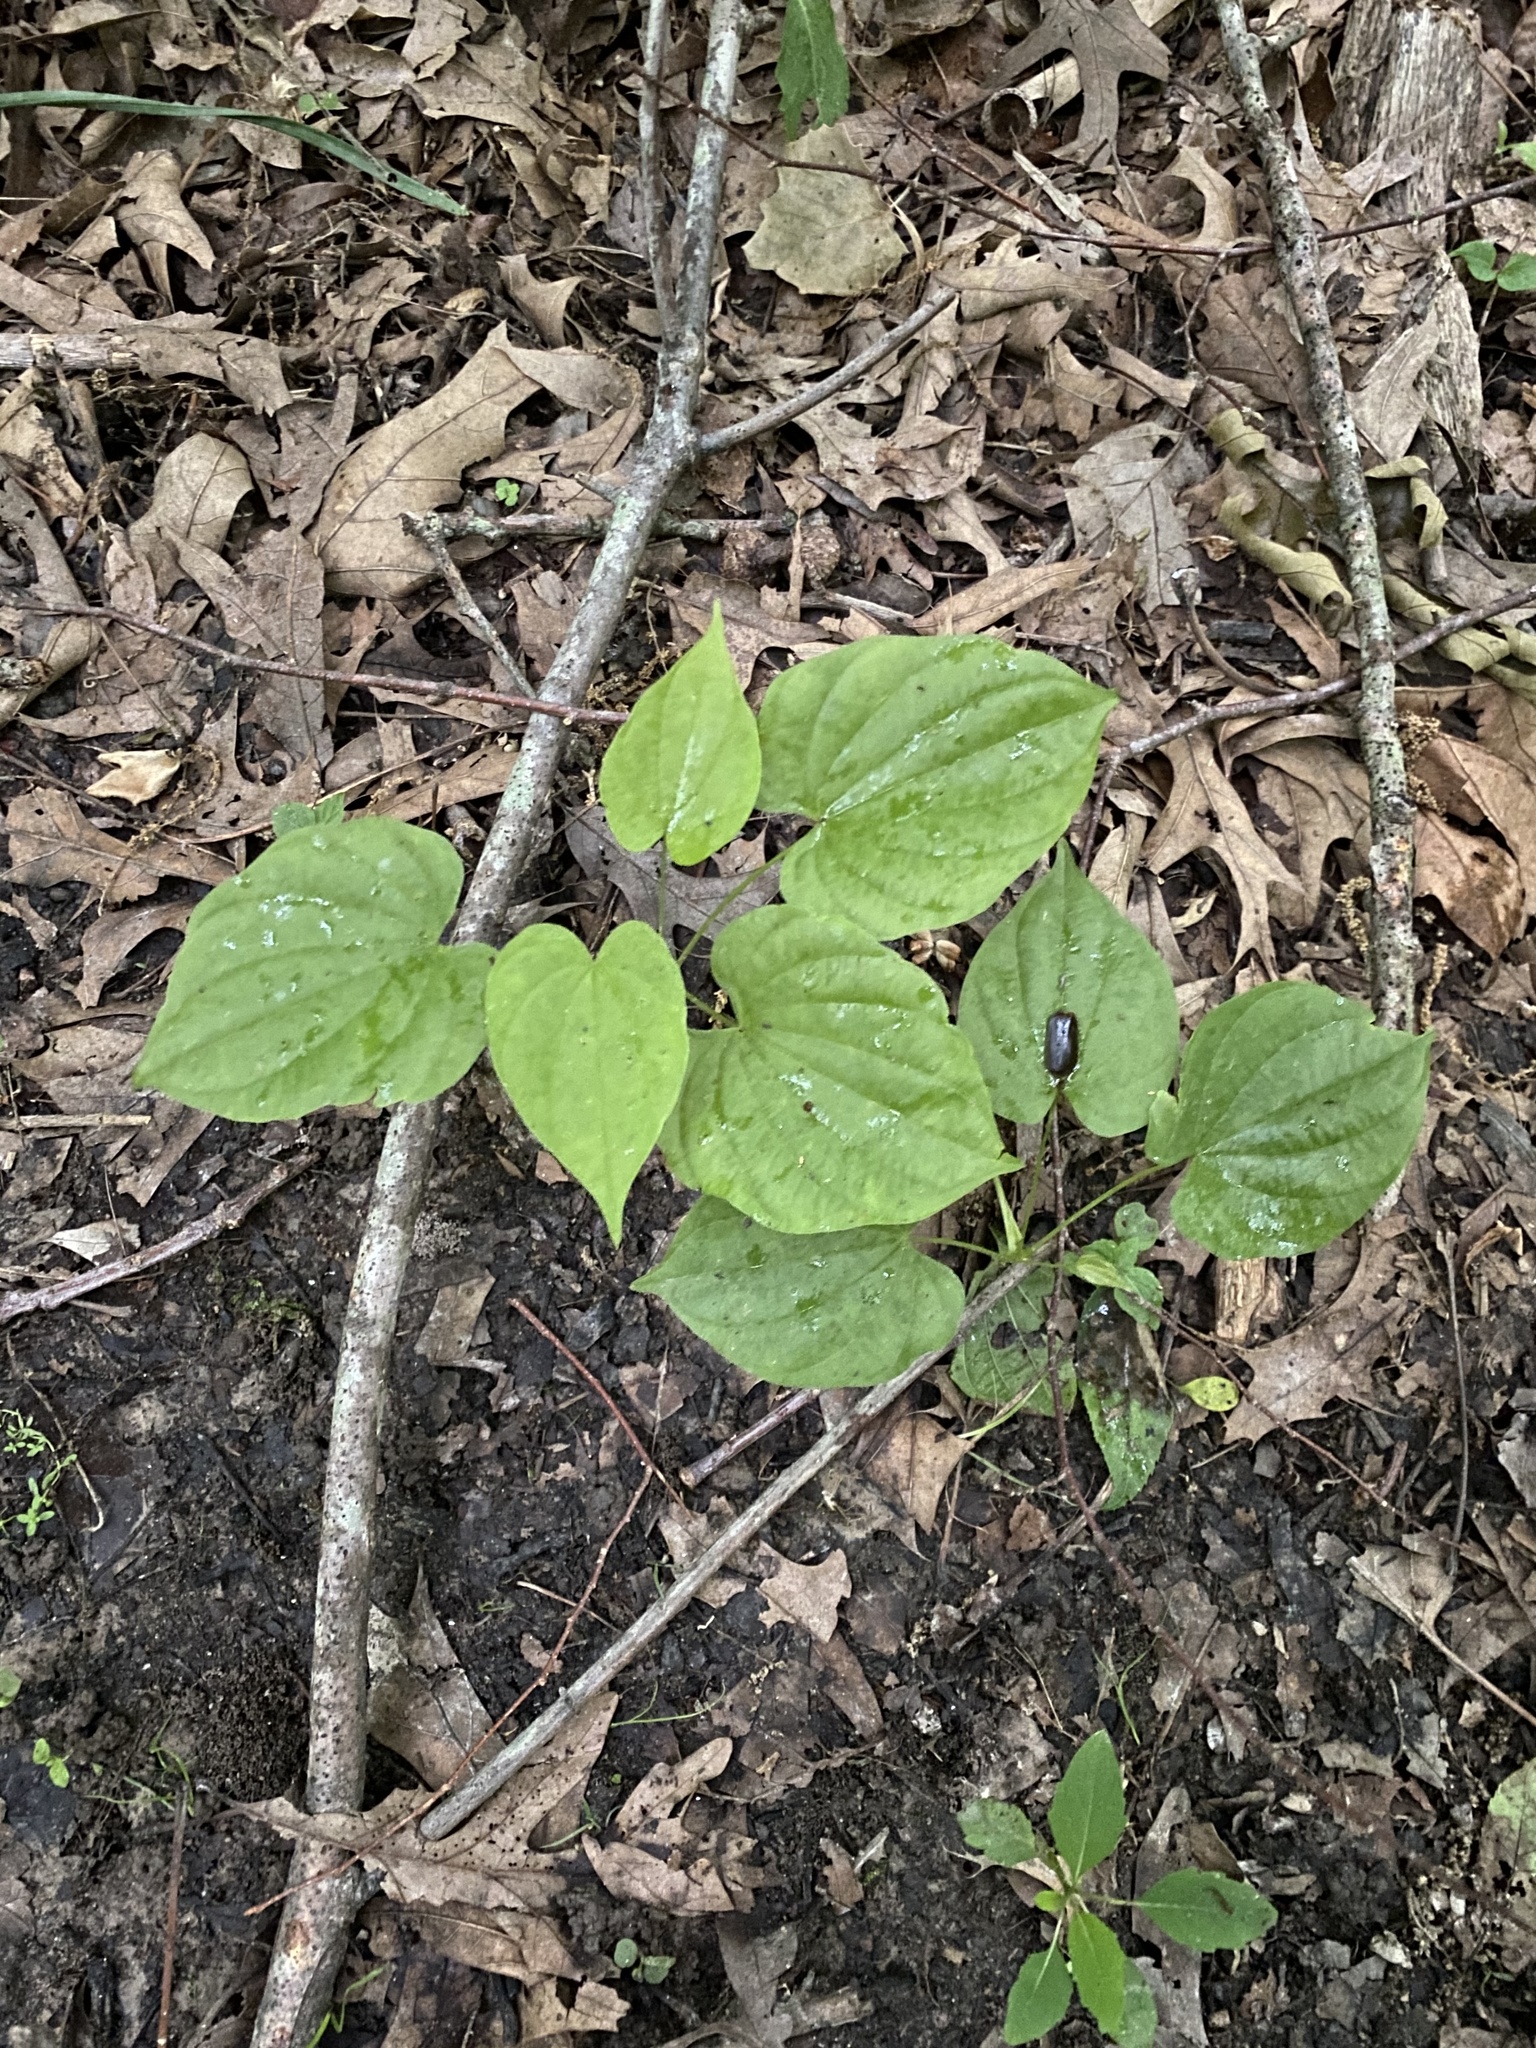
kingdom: Plantae
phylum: Tracheophyta
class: Liliopsida
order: Dioscoreales
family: Dioscoreaceae
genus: Dioscorea
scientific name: Dioscorea villosa
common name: Wild yam
